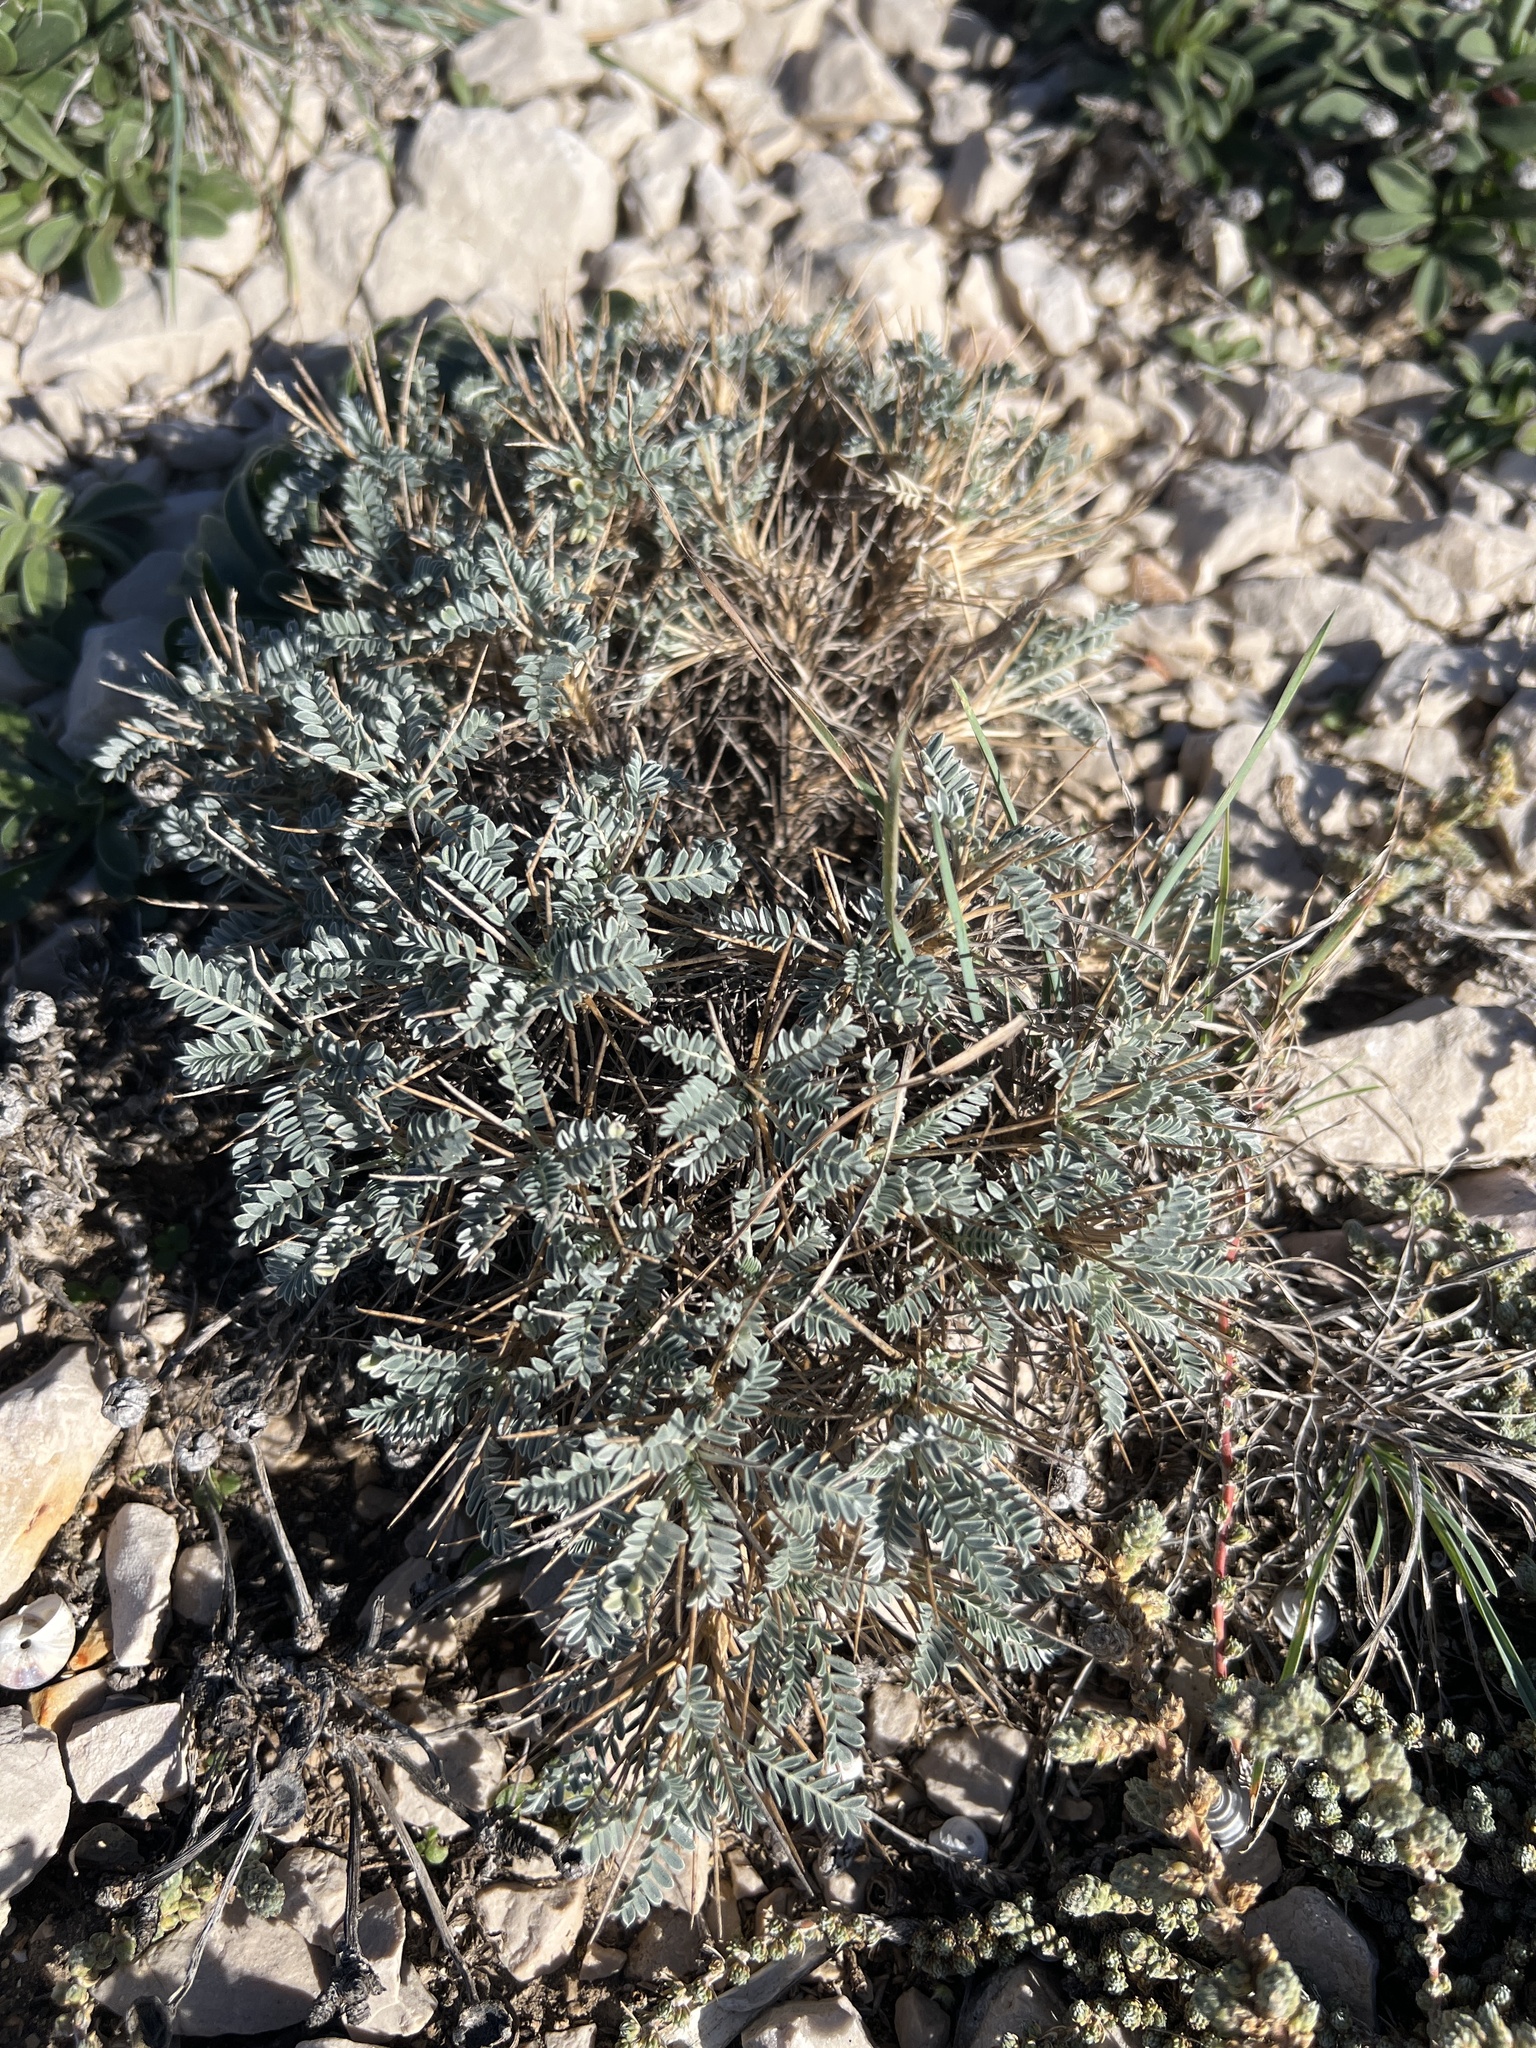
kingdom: Plantae
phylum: Tracheophyta
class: Magnoliopsida
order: Fabales
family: Fabaceae
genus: Astragalus
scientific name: Astragalus tragacantha
